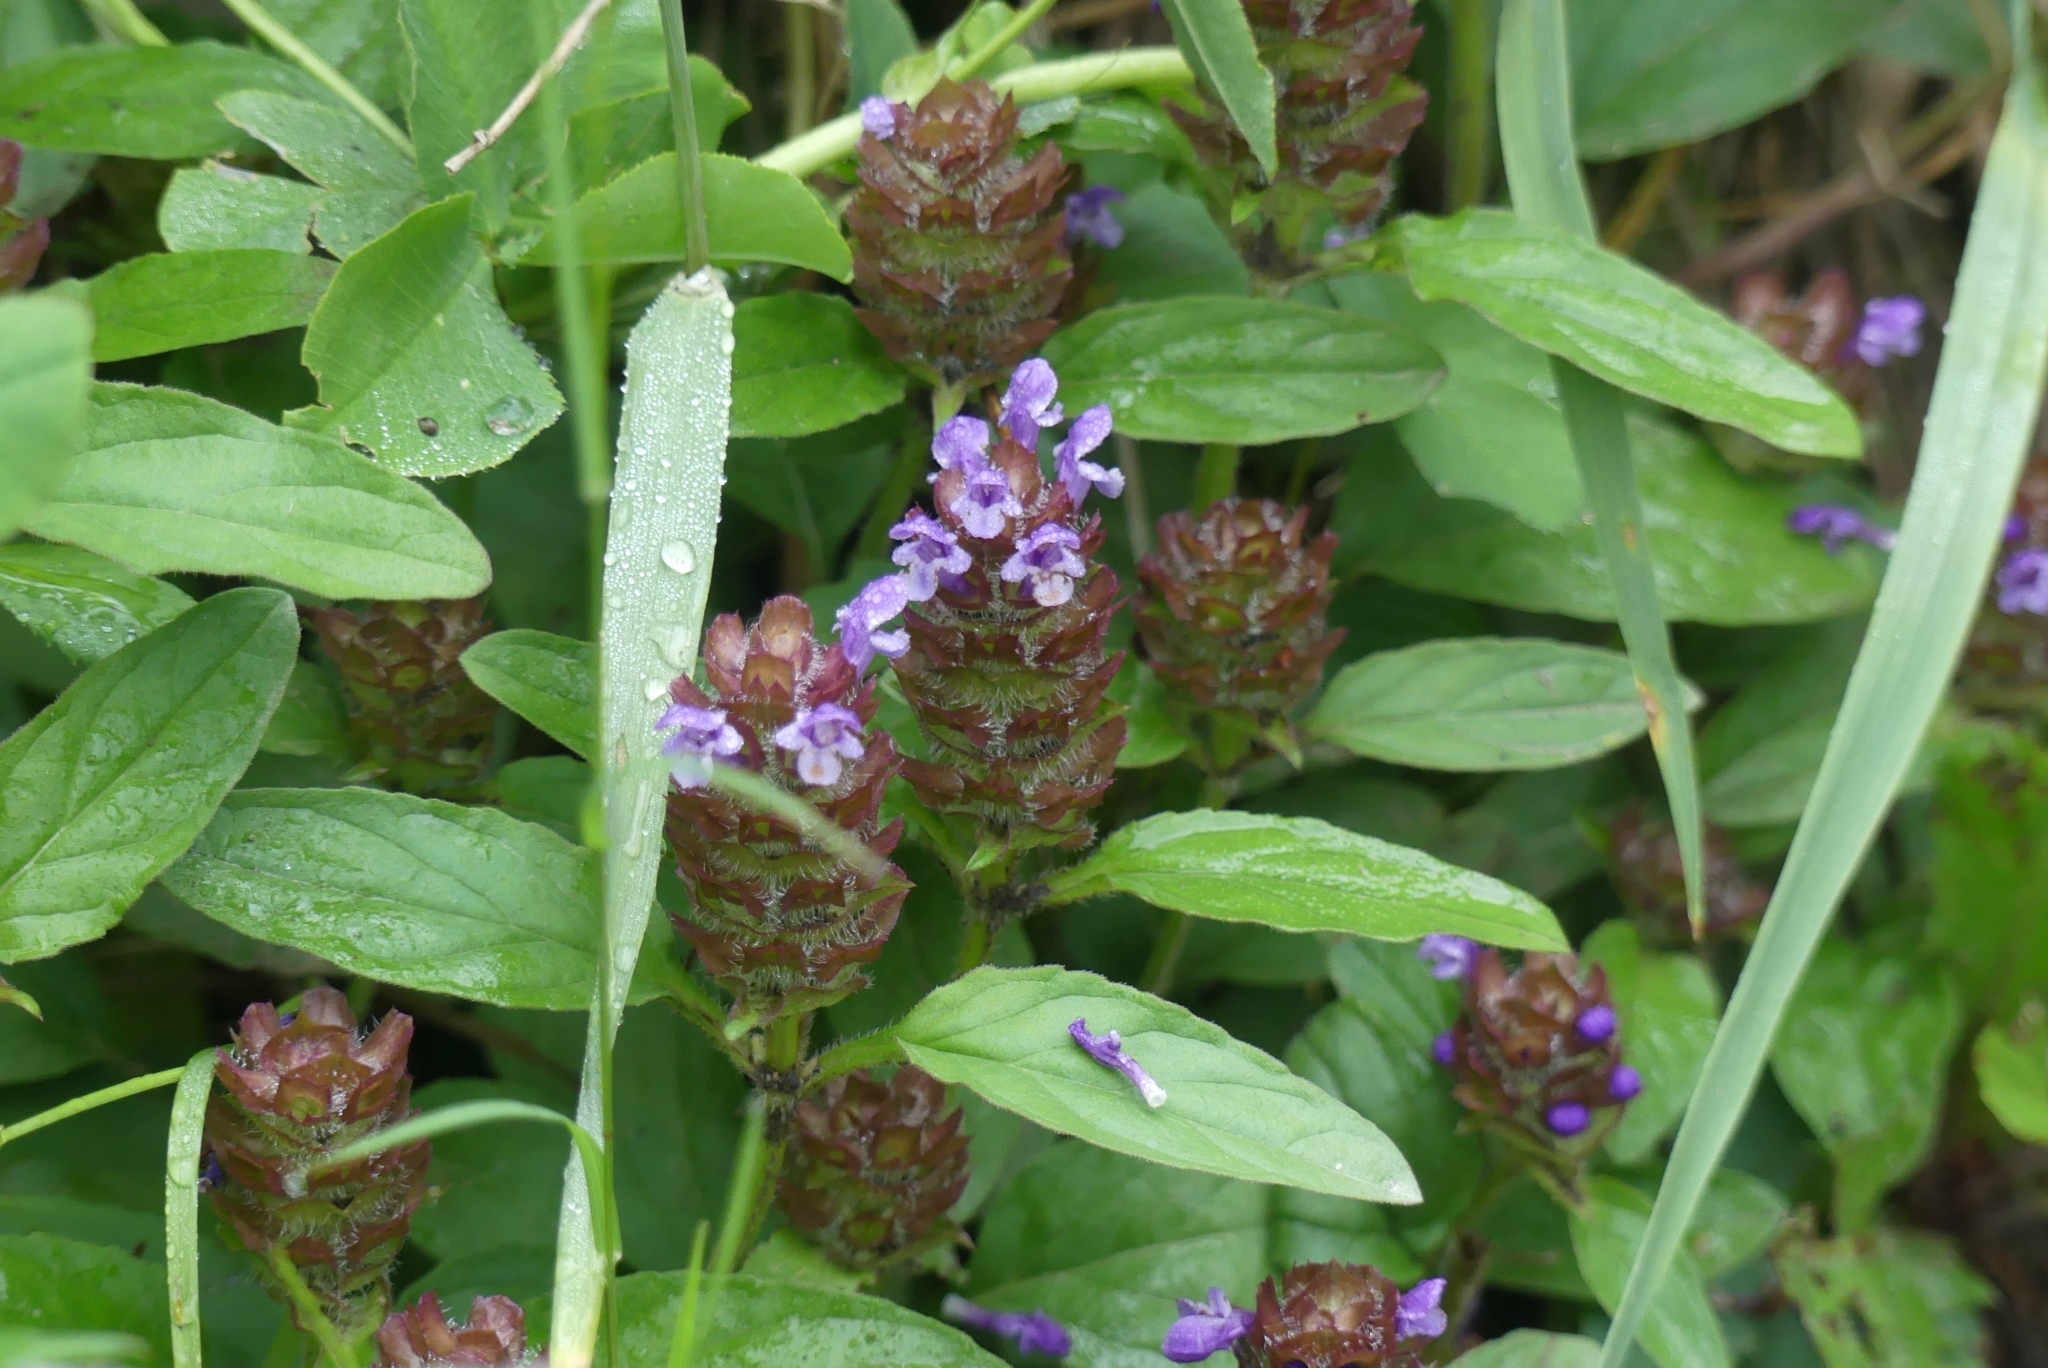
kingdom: Plantae
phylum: Tracheophyta
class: Magnoliopsida
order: Lamiales
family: Lamiaceae
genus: Prunella
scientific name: Prunella vulgaris
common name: Heal-all
